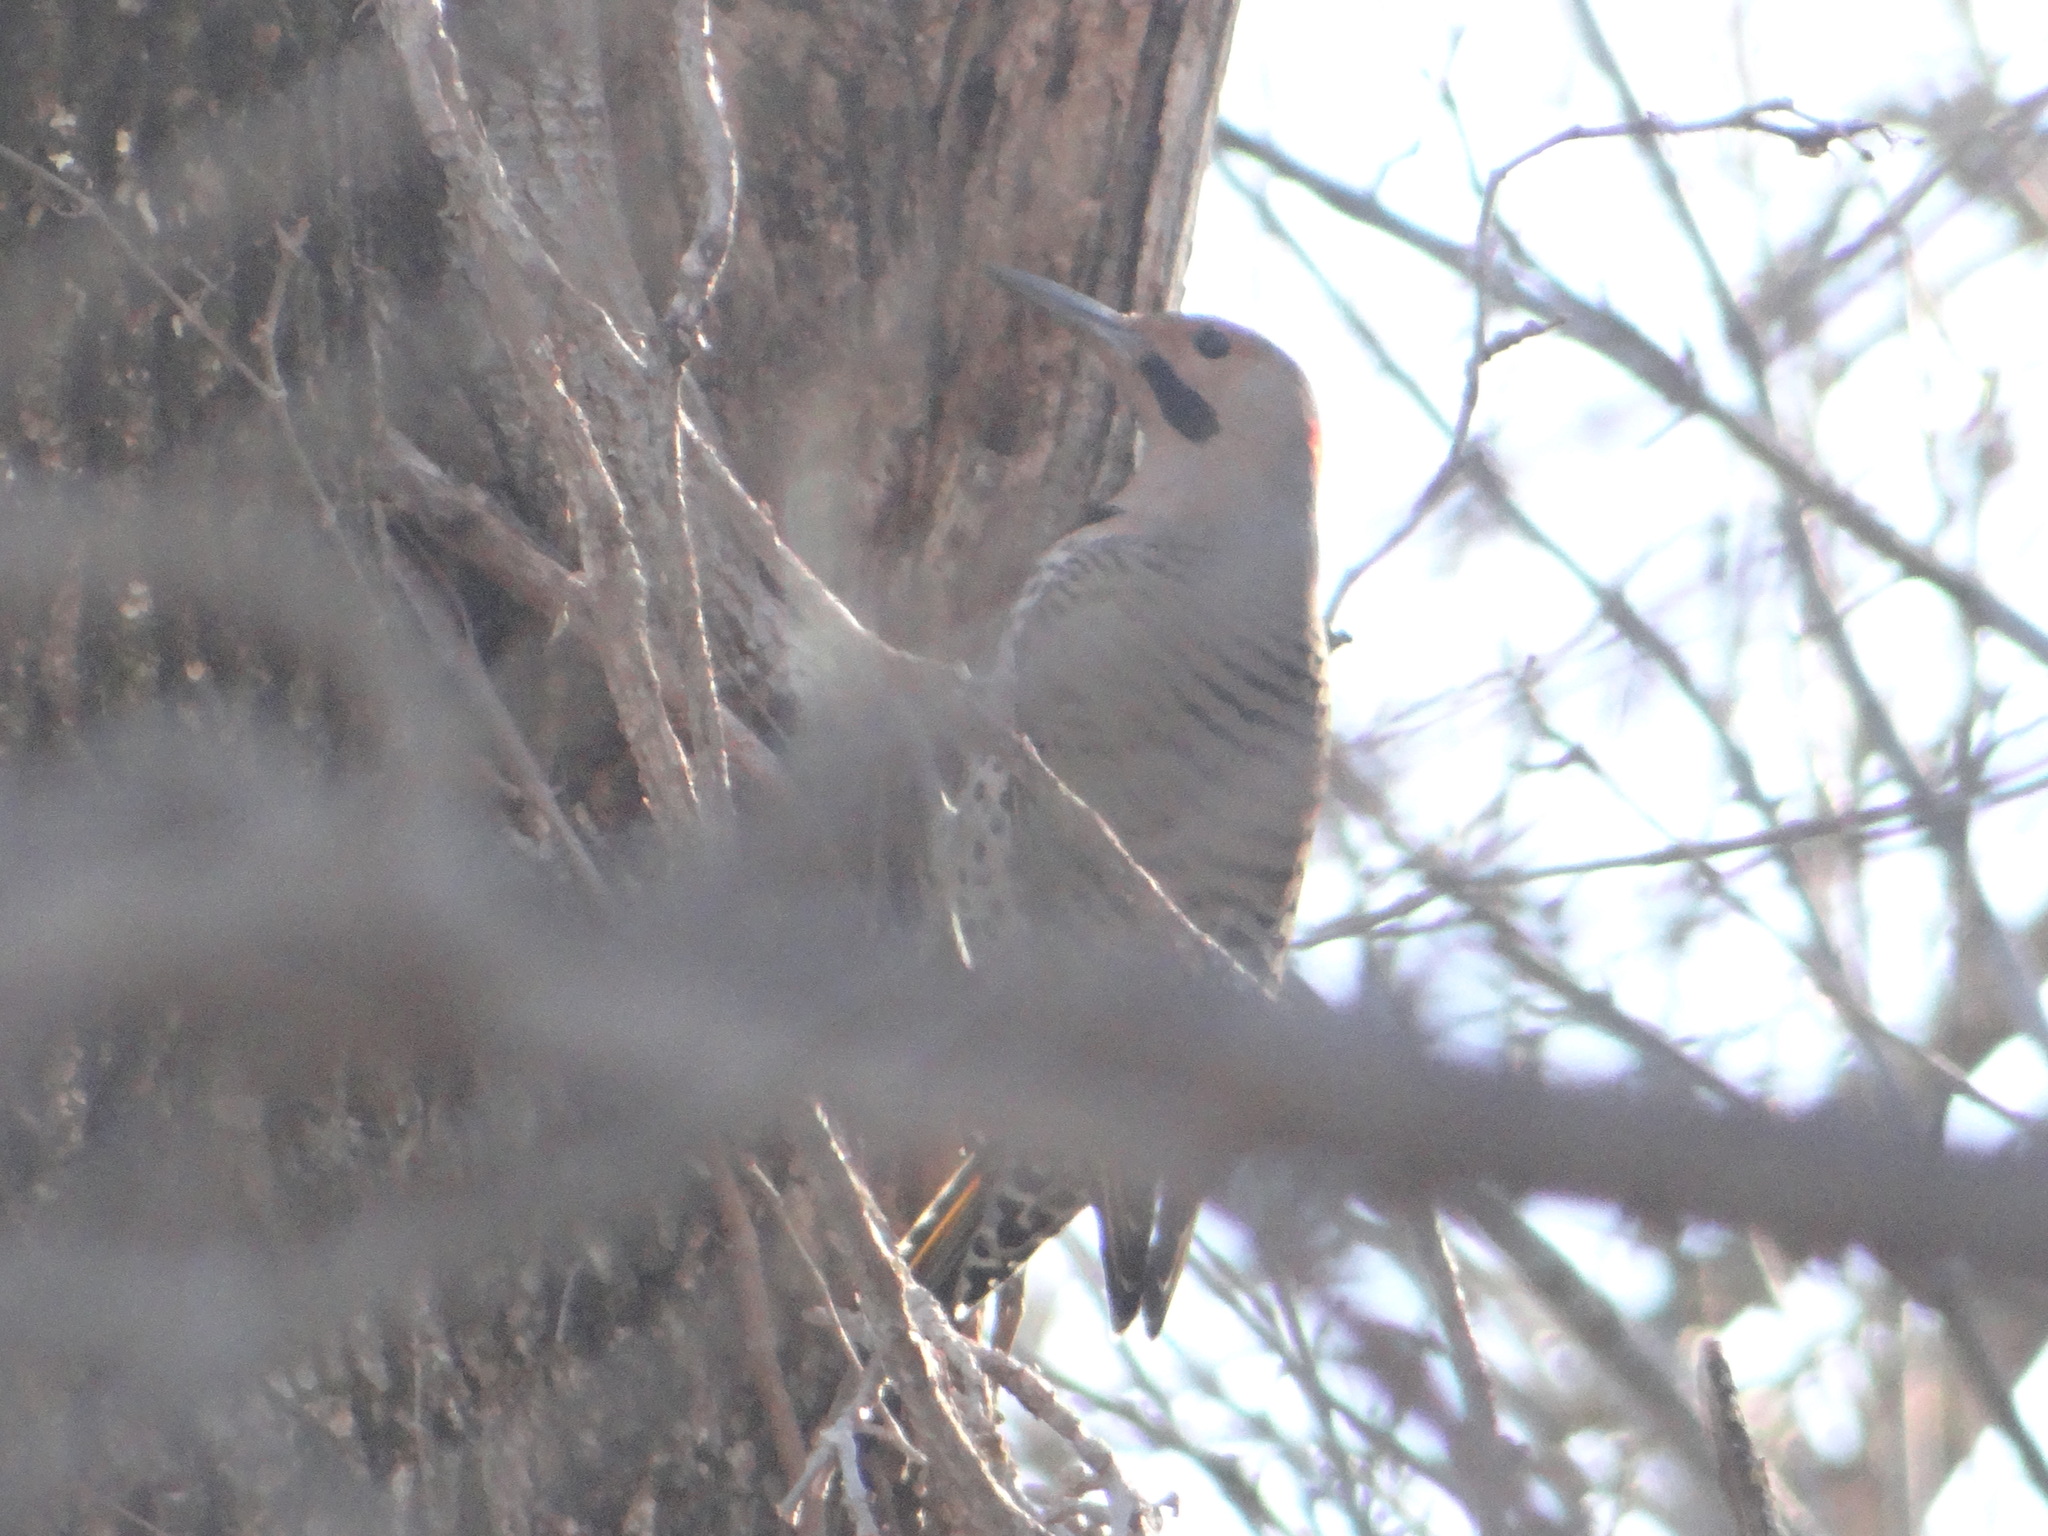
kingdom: Animalia
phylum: Chordata
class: Aves
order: Piciformes
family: Picidae
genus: Colaptes
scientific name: Colaptes auratus
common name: Northern flicker
